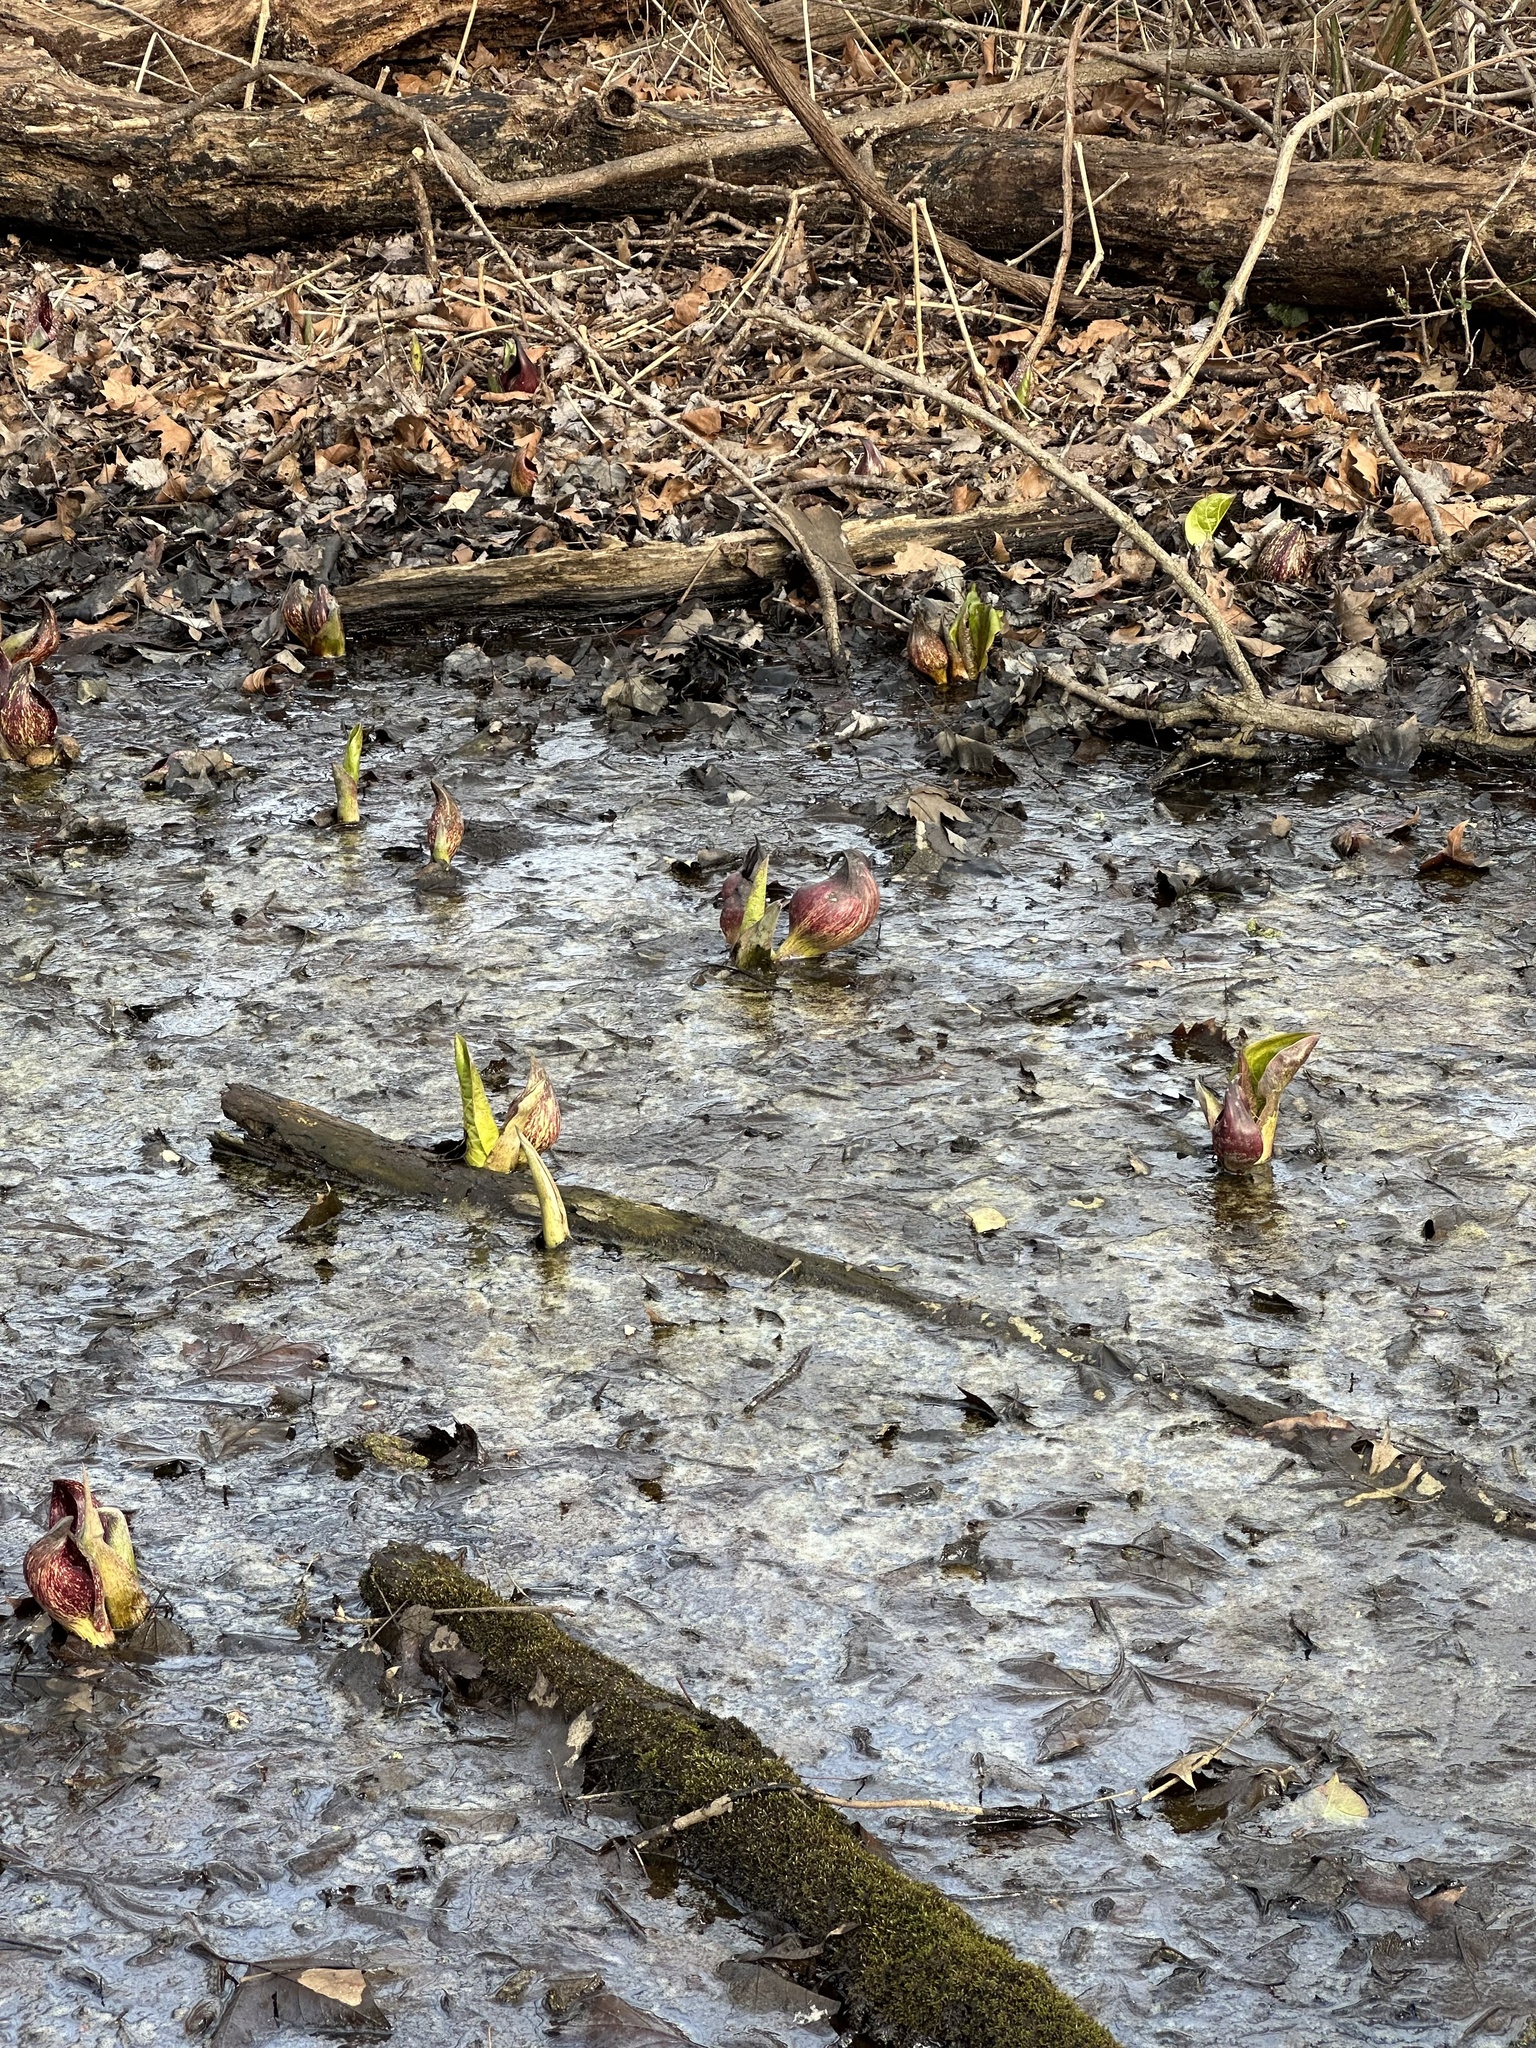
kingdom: Plantae
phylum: Tracheophyta
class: Liliopsida
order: Alismatales
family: Araceae
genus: Symplocarpus
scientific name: Symplocarpus foetidus
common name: Eastern skunk cabbage
